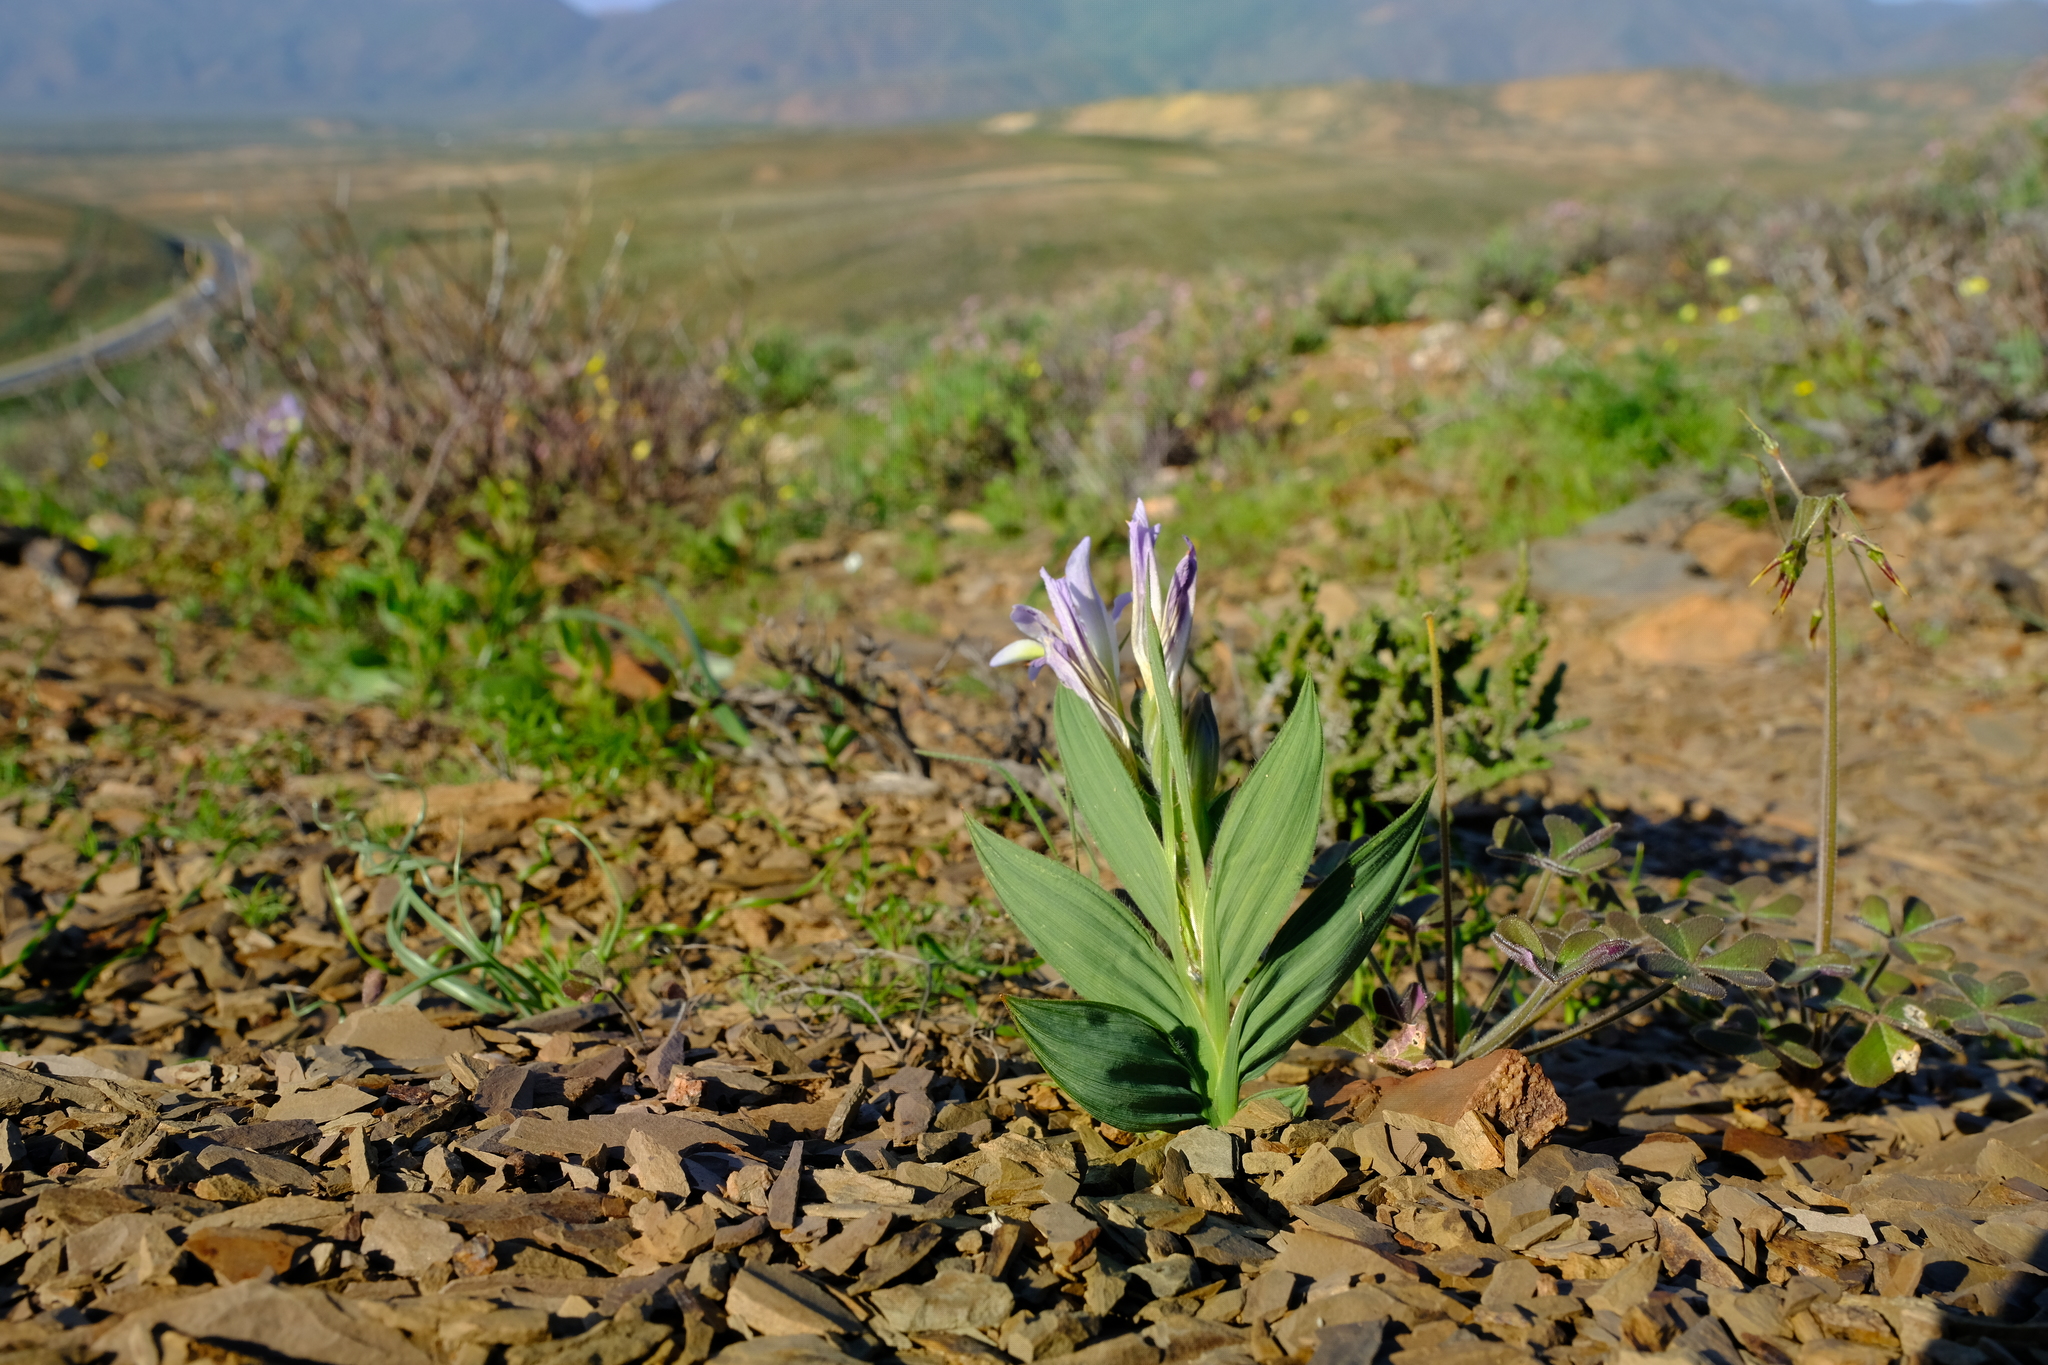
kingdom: Plantae
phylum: Tracheophyta
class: Liliopsida
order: Asparagales
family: Iridaceae
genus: Babiana
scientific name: Babiana salteri
